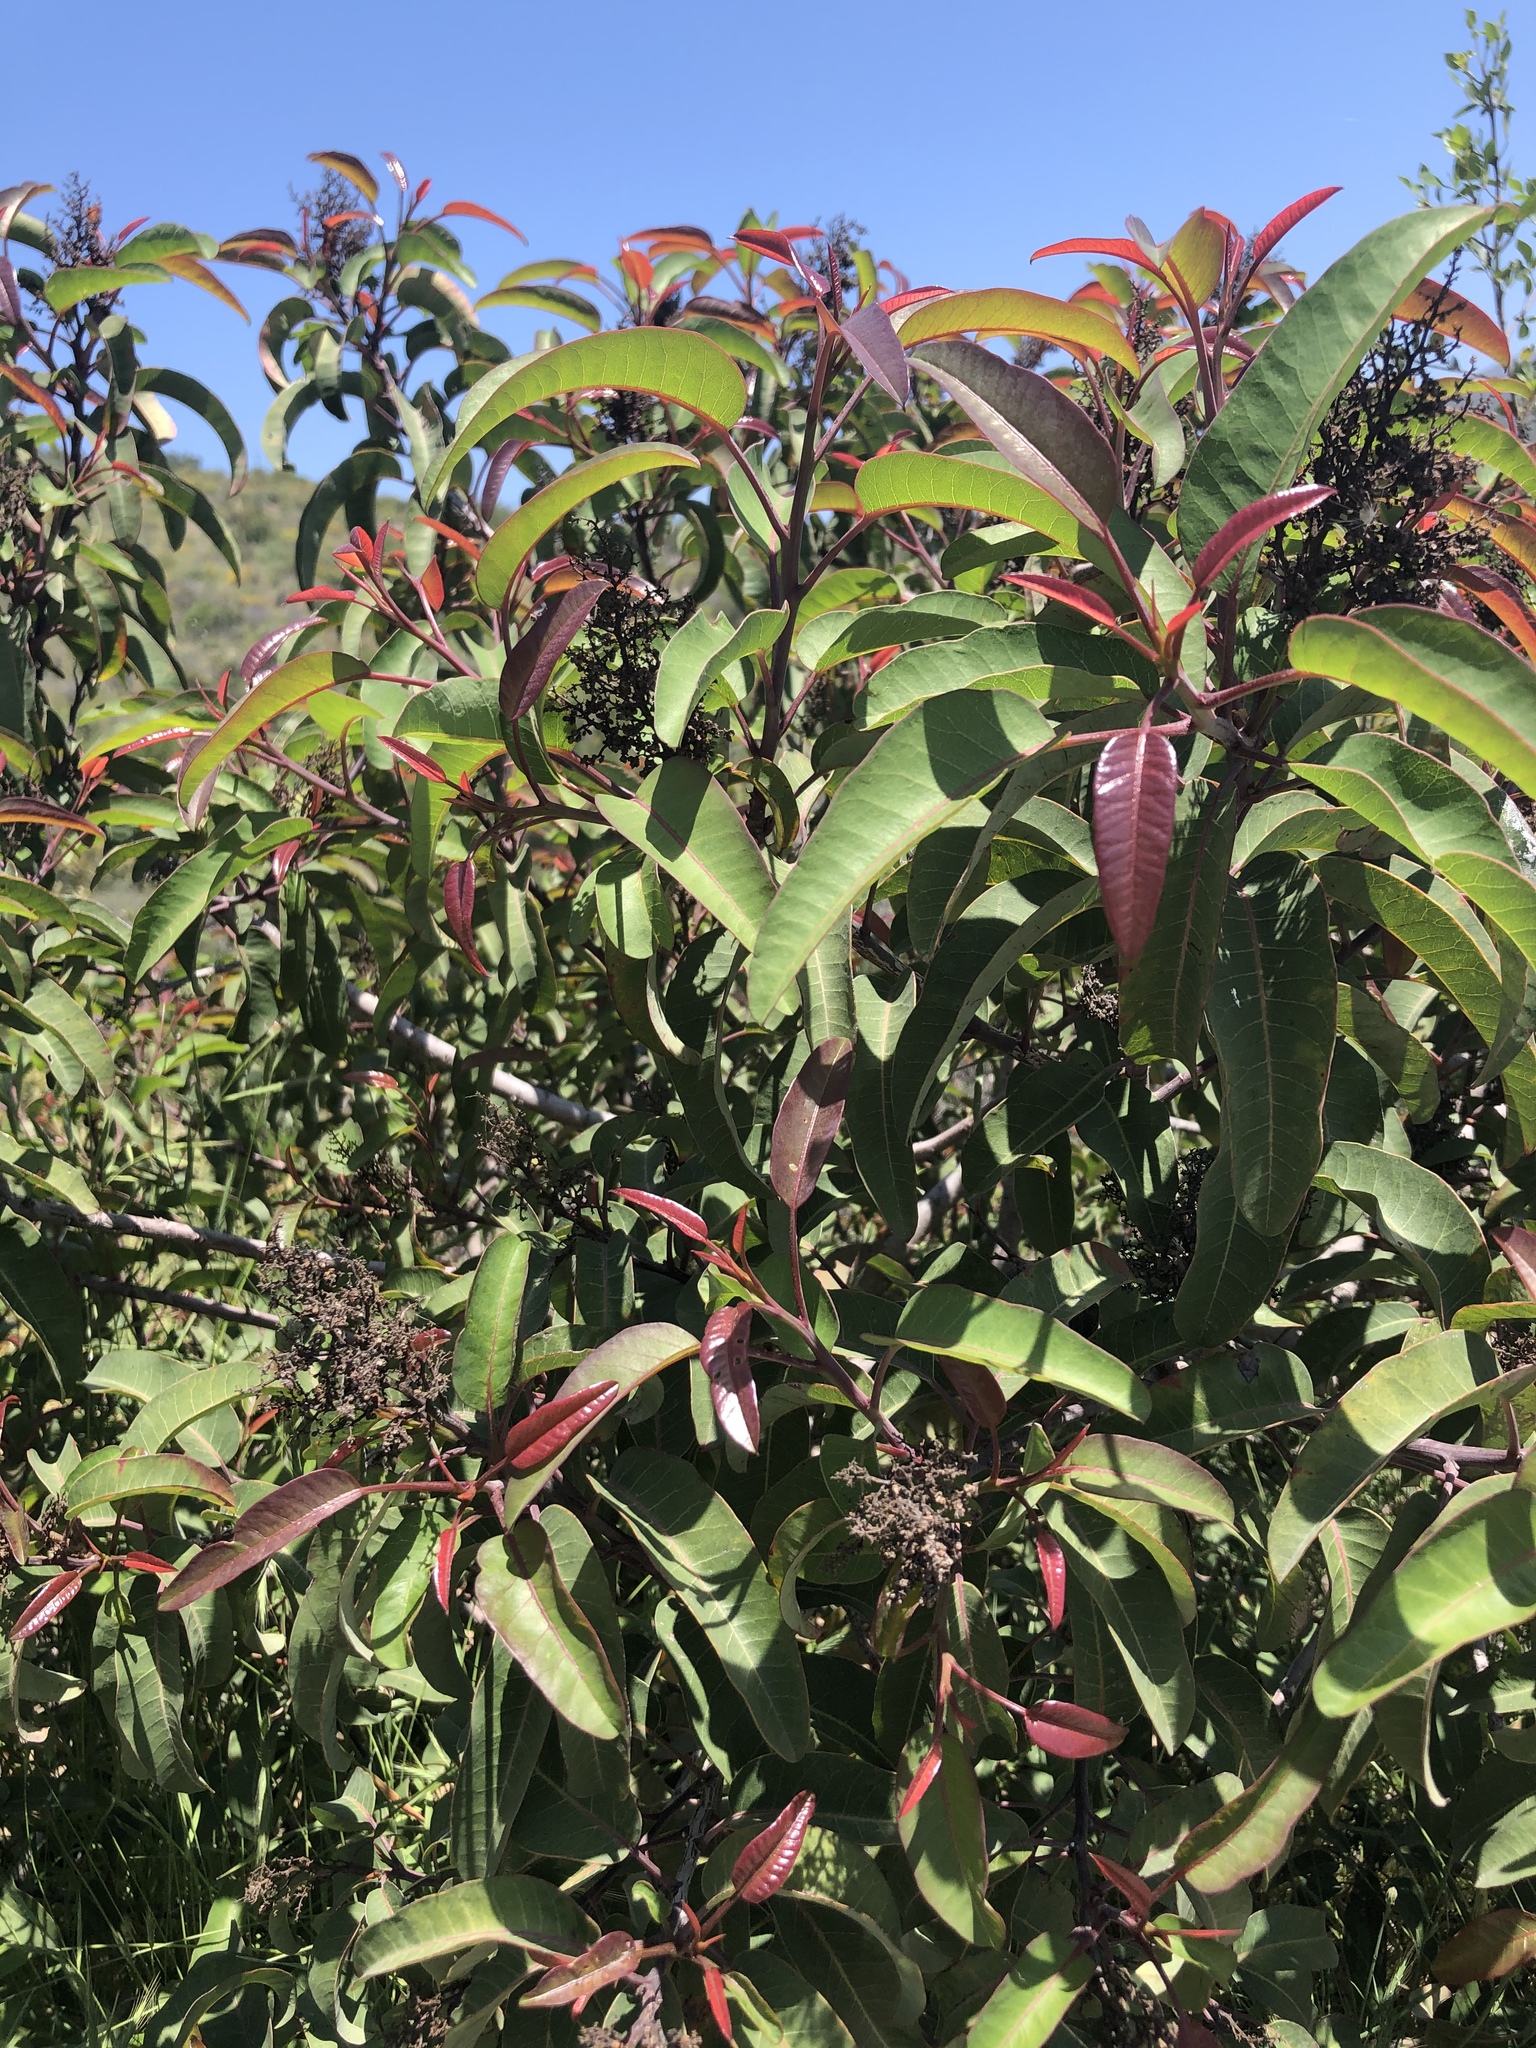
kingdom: Plantae
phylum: Tracheophyta
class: Magnoliopsida
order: Sapindales
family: Anacardiaceae
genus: Malosma
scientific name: Malosma laurina
